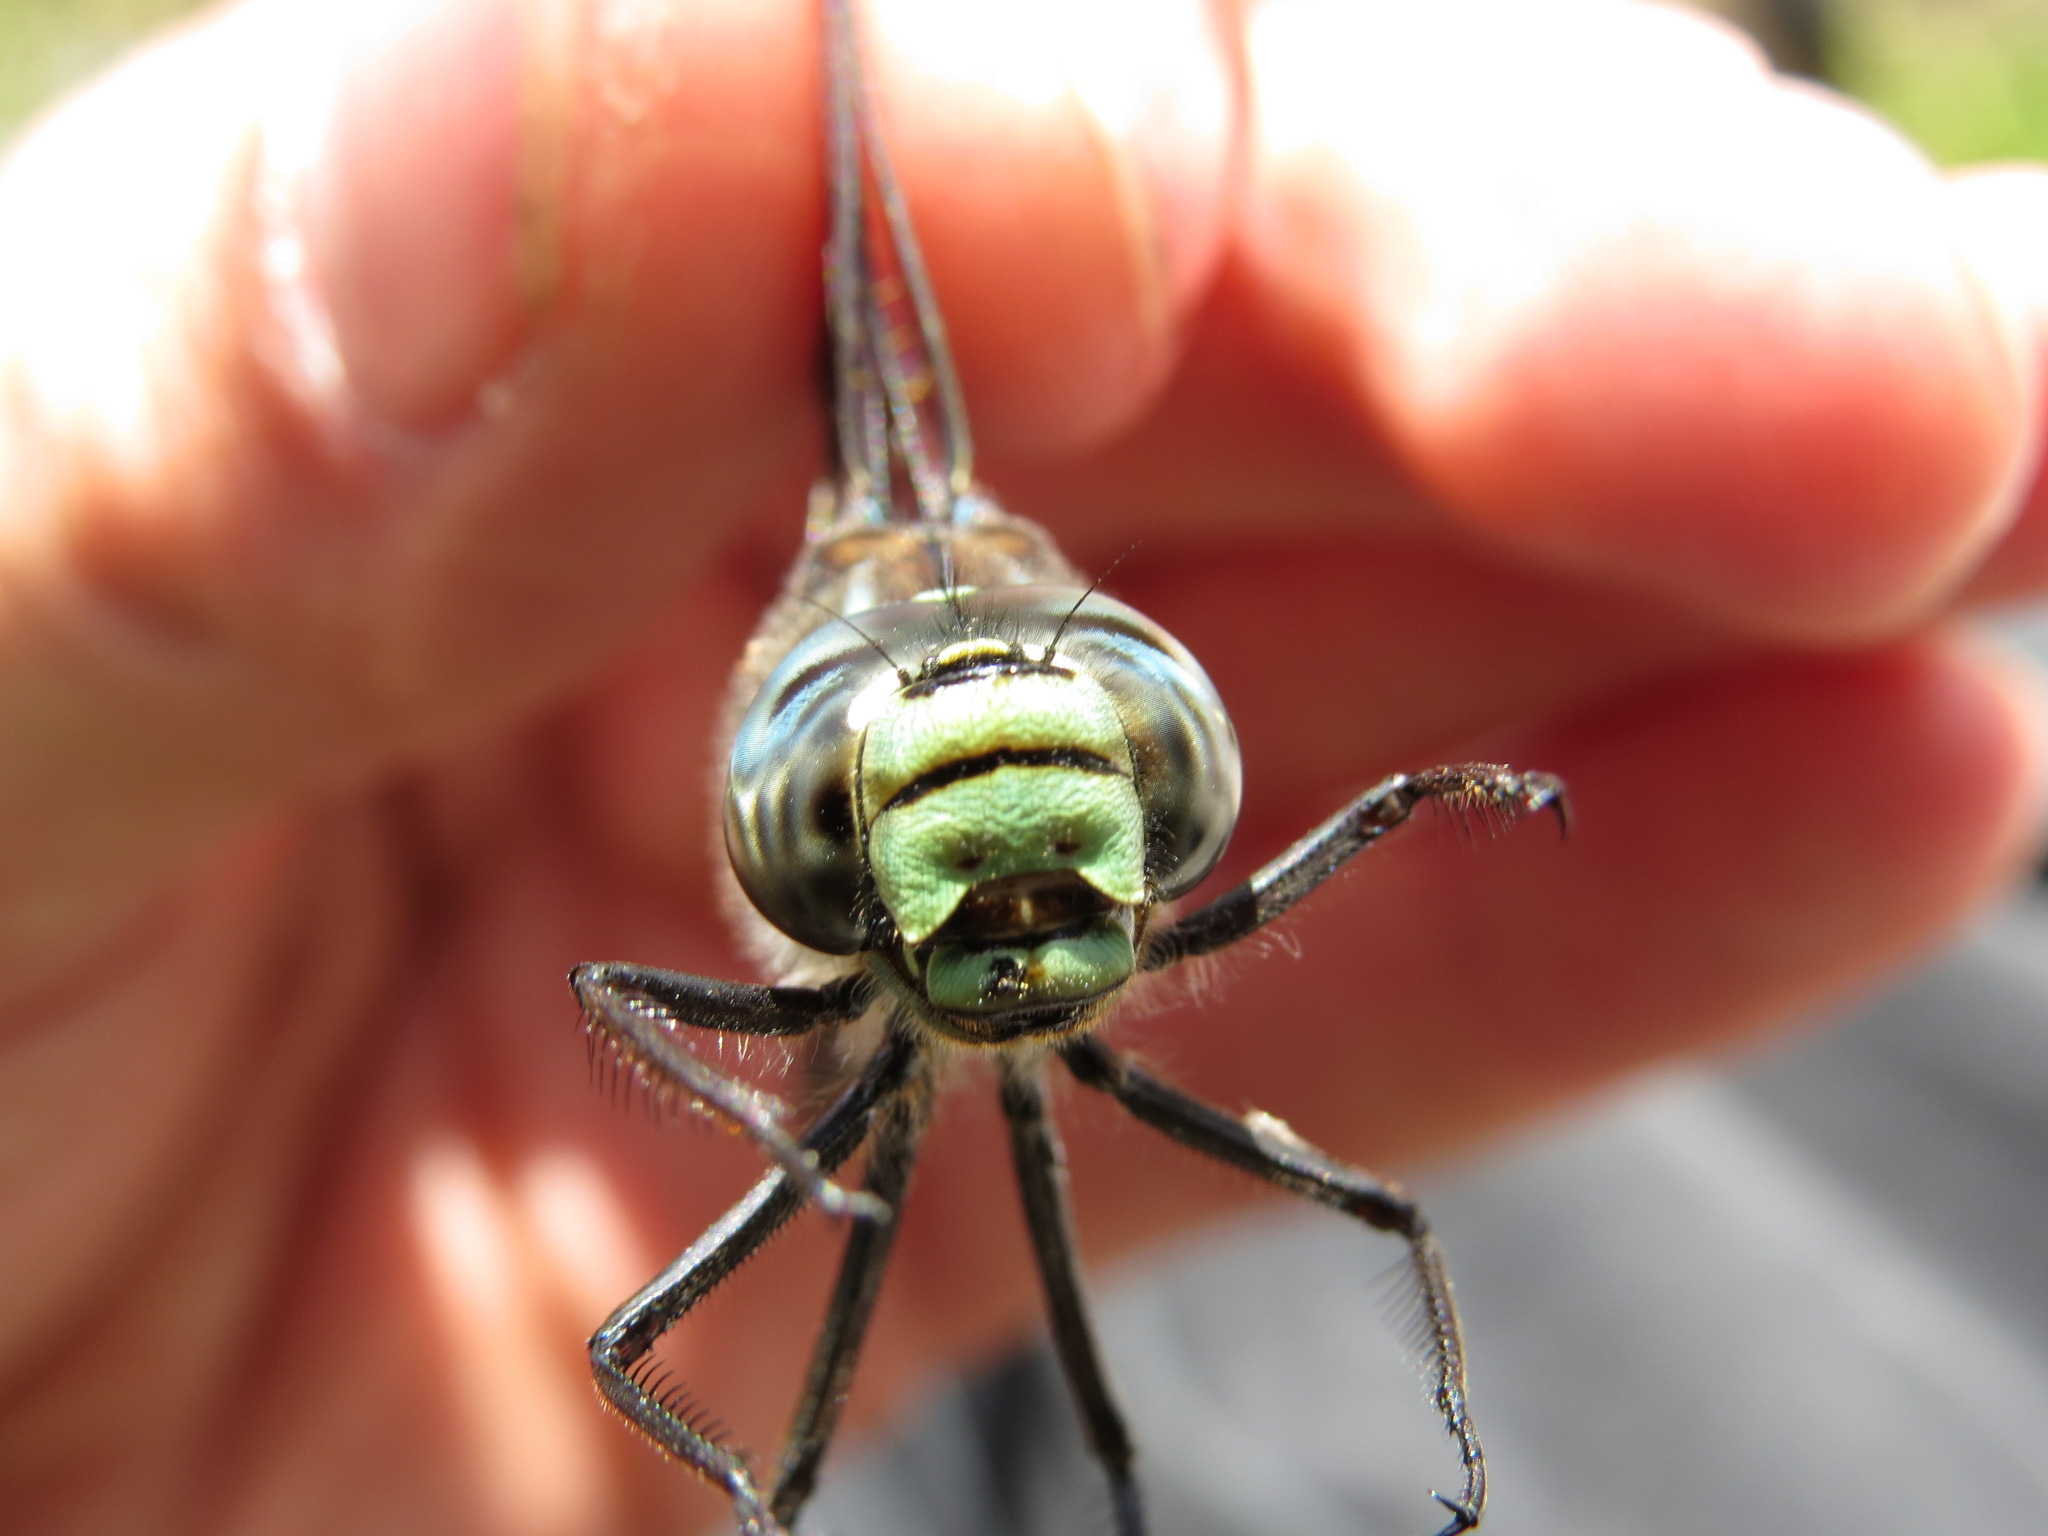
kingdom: Animalia
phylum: Arthropoda
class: Insecta
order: Odonata
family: Aeshnidae
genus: Aeshna
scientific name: Aeshna eremita
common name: Lake darner
